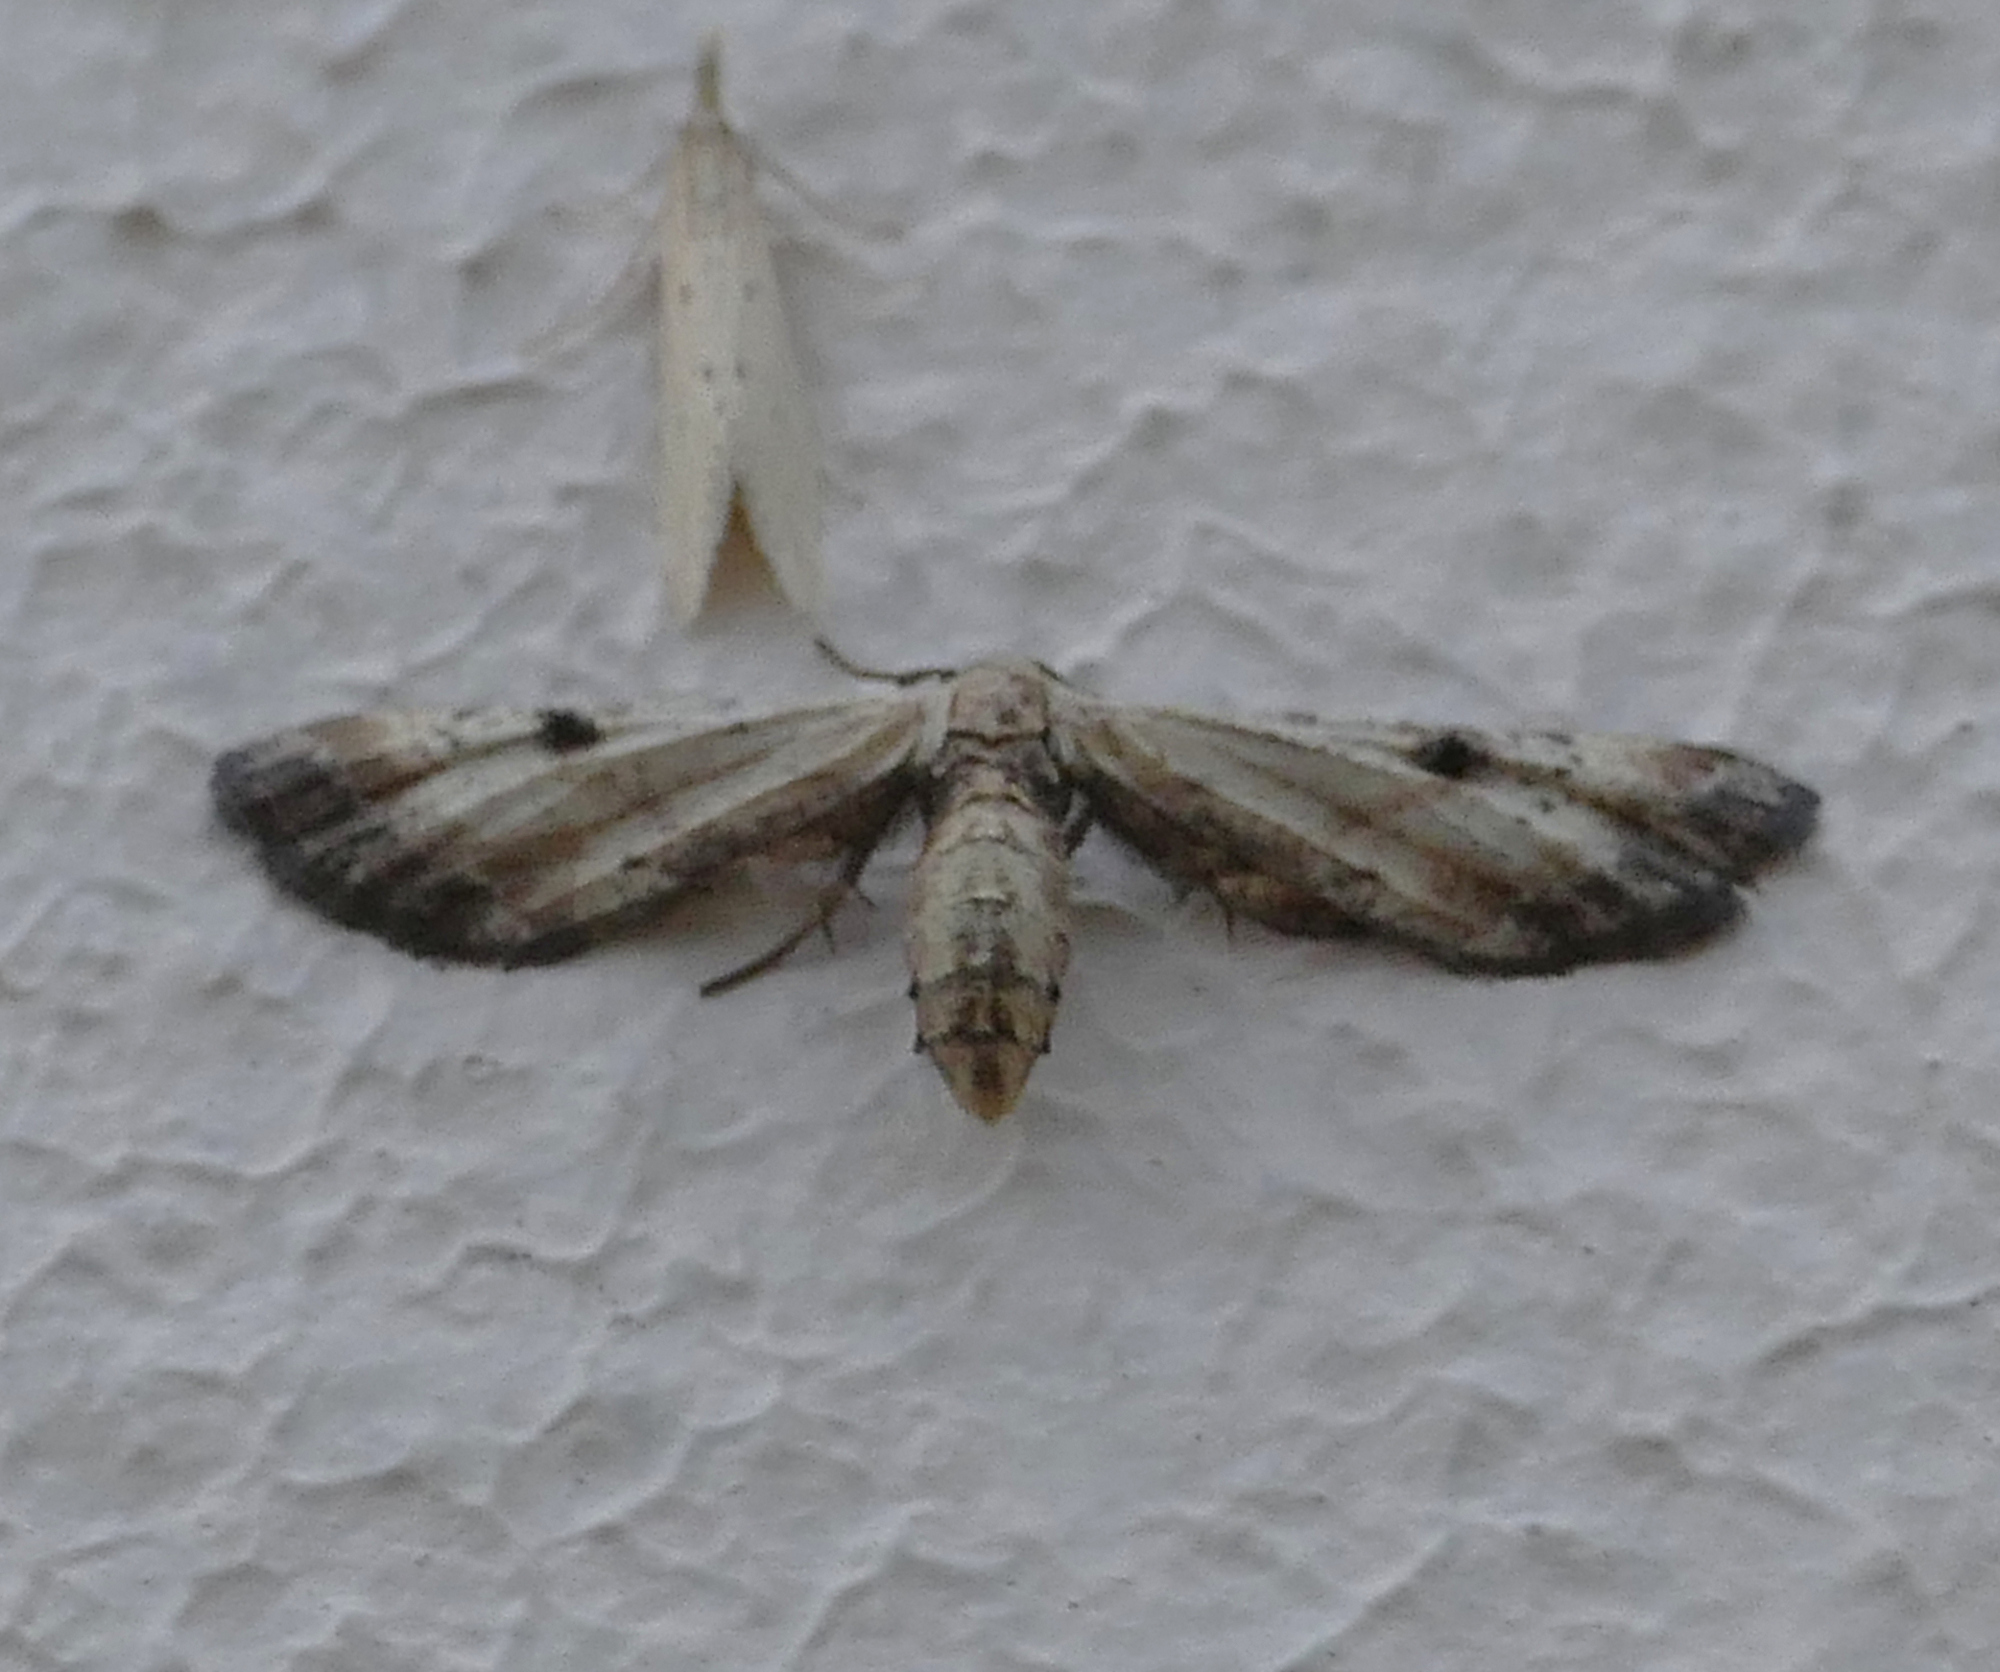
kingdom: Animalia
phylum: Arthropoda
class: Insecta
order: Lepidoptera
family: Geometridae
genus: Tornos
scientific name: Tornos scolopacinaria
